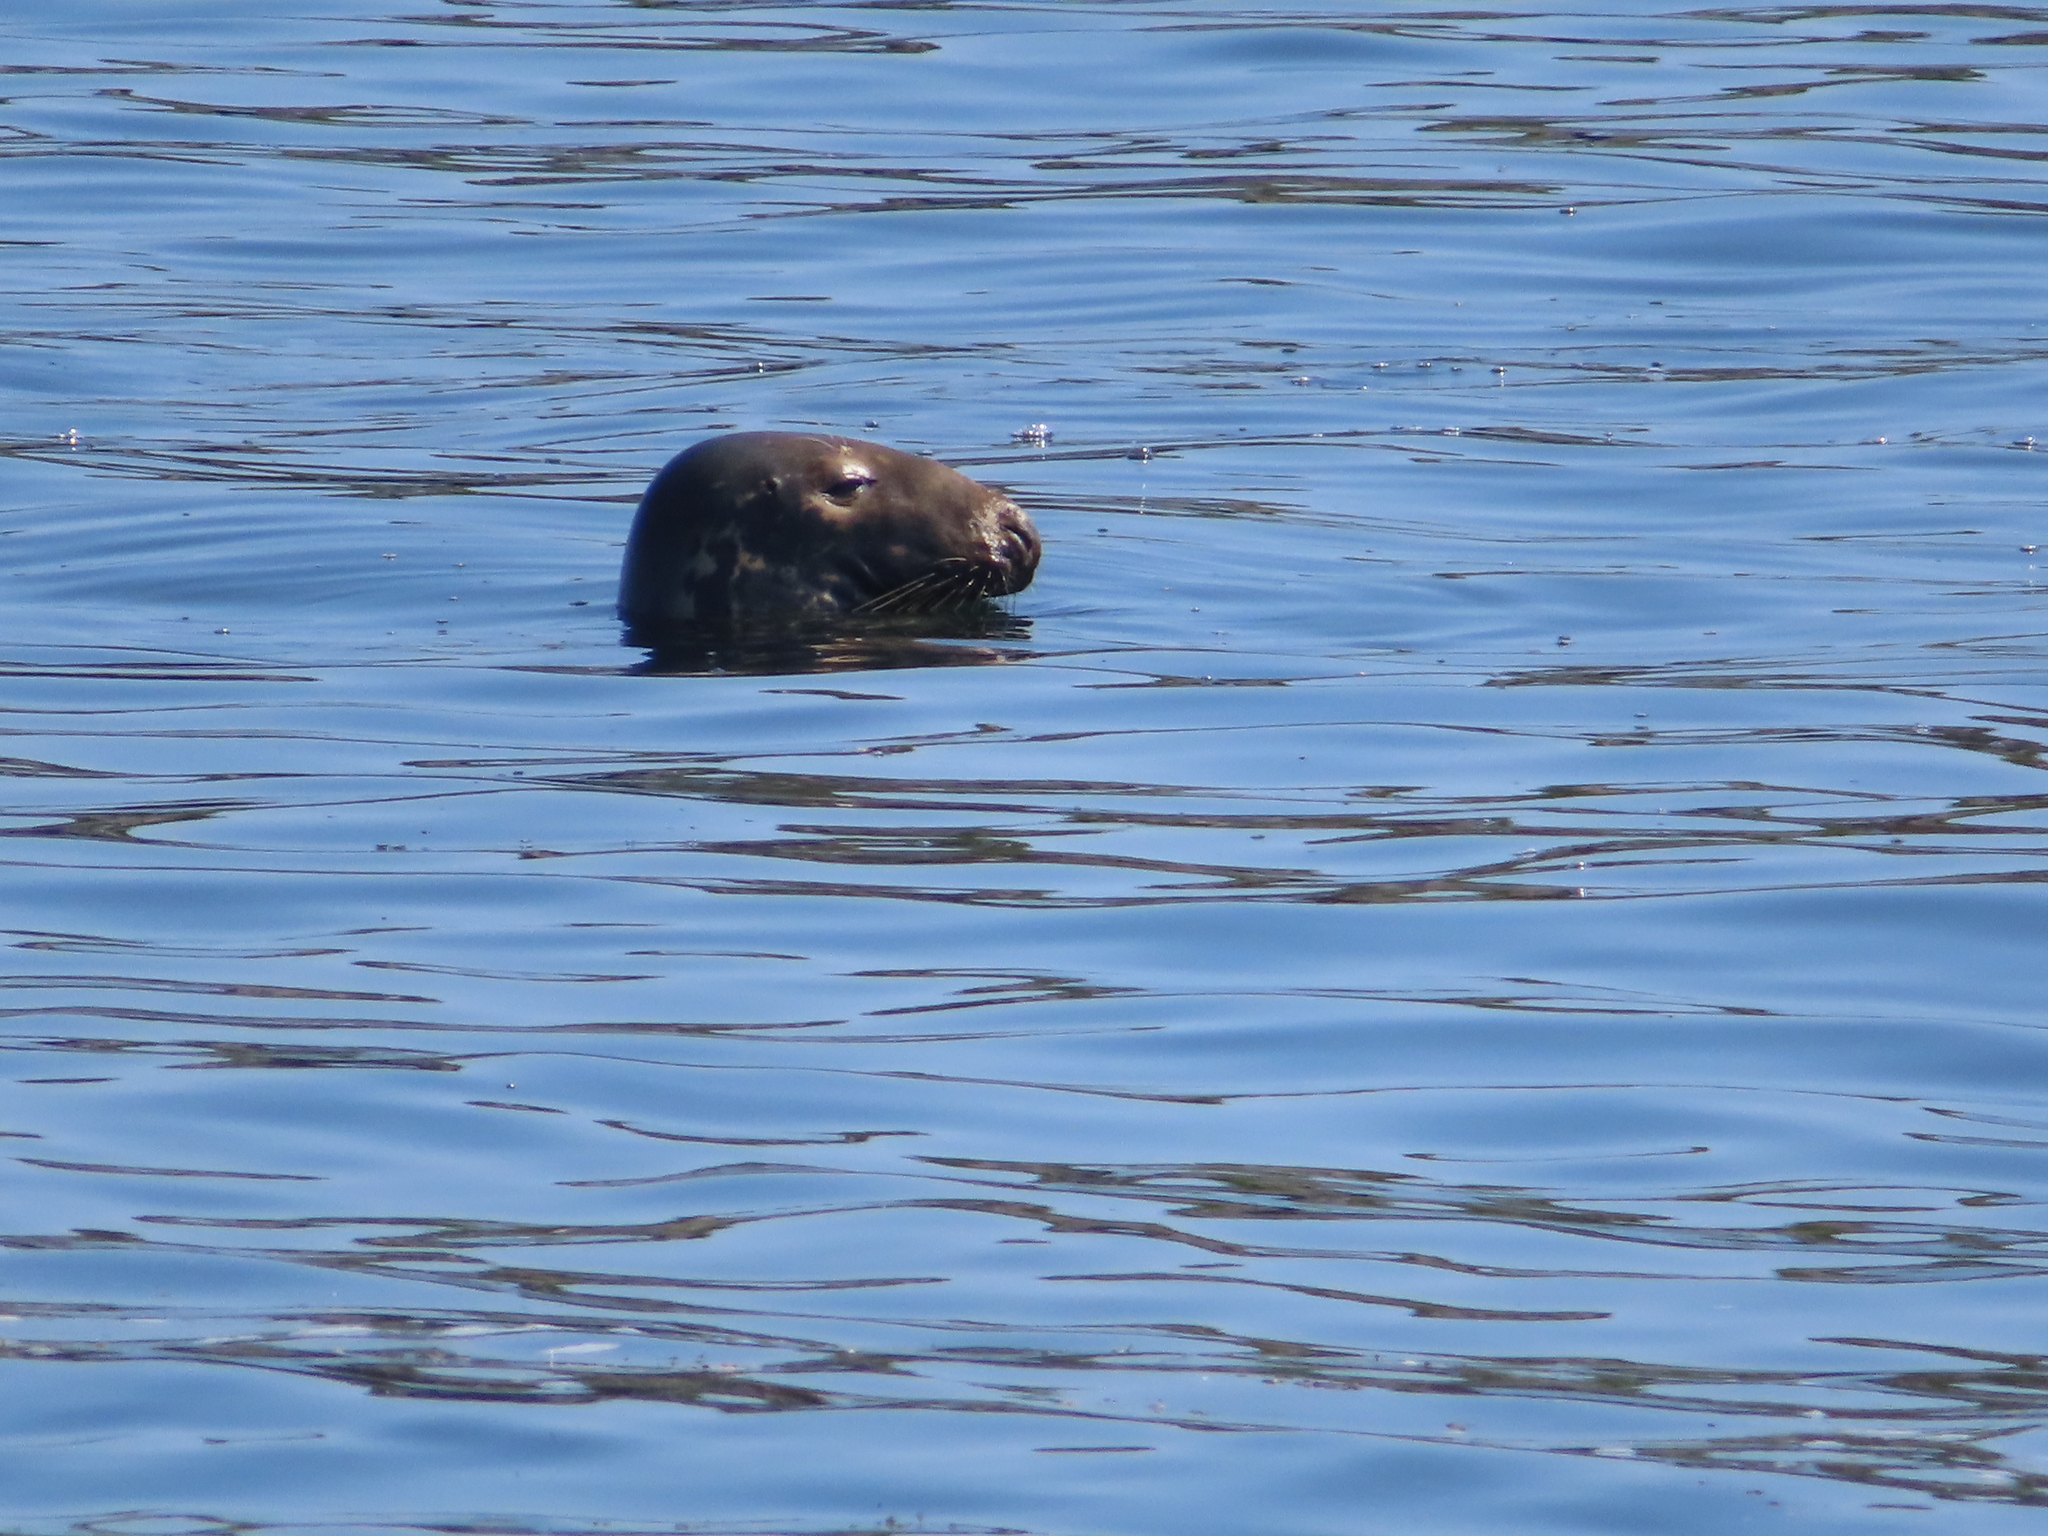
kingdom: Animalia
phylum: Chordata
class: Mammalia
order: Carnivora
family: Phocidae
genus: Halichoerus
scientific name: Halichoerus grypus
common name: Grey seal
